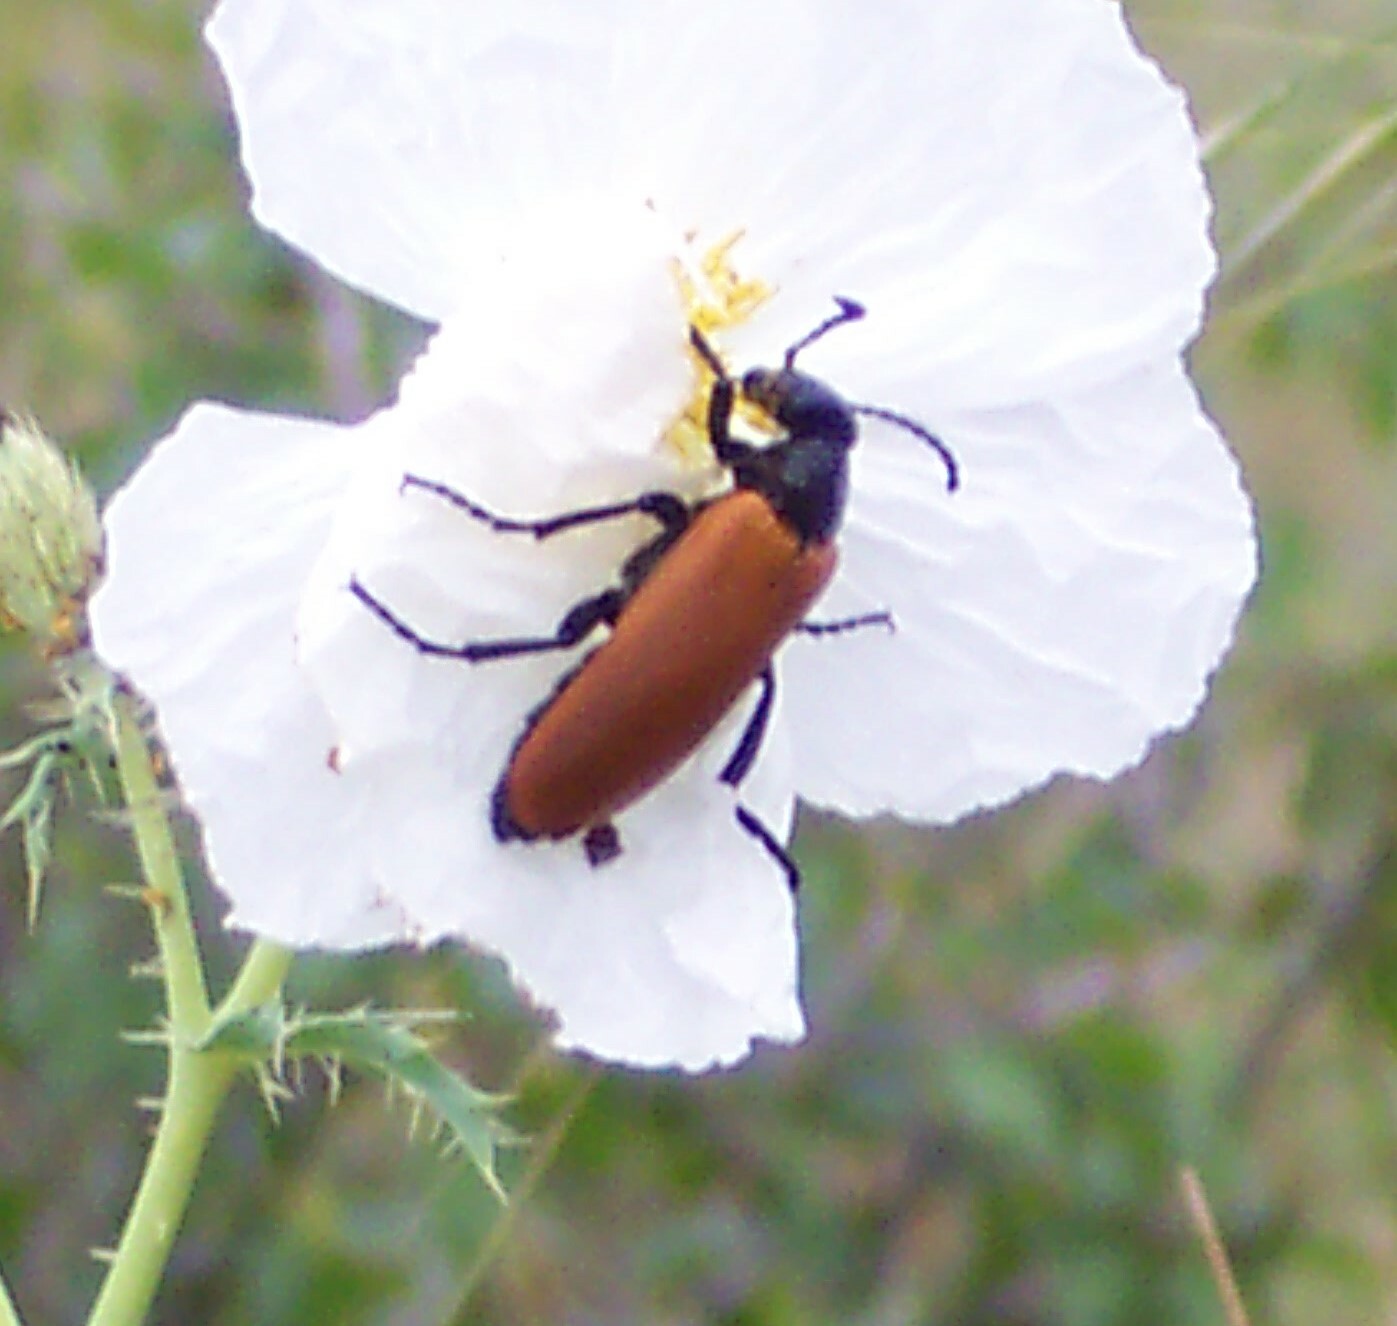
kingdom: Animalia
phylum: Arthropoda
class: Insecta
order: Coleoptera
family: Meloidae
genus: Lytta
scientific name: Lytta fulvipennis
